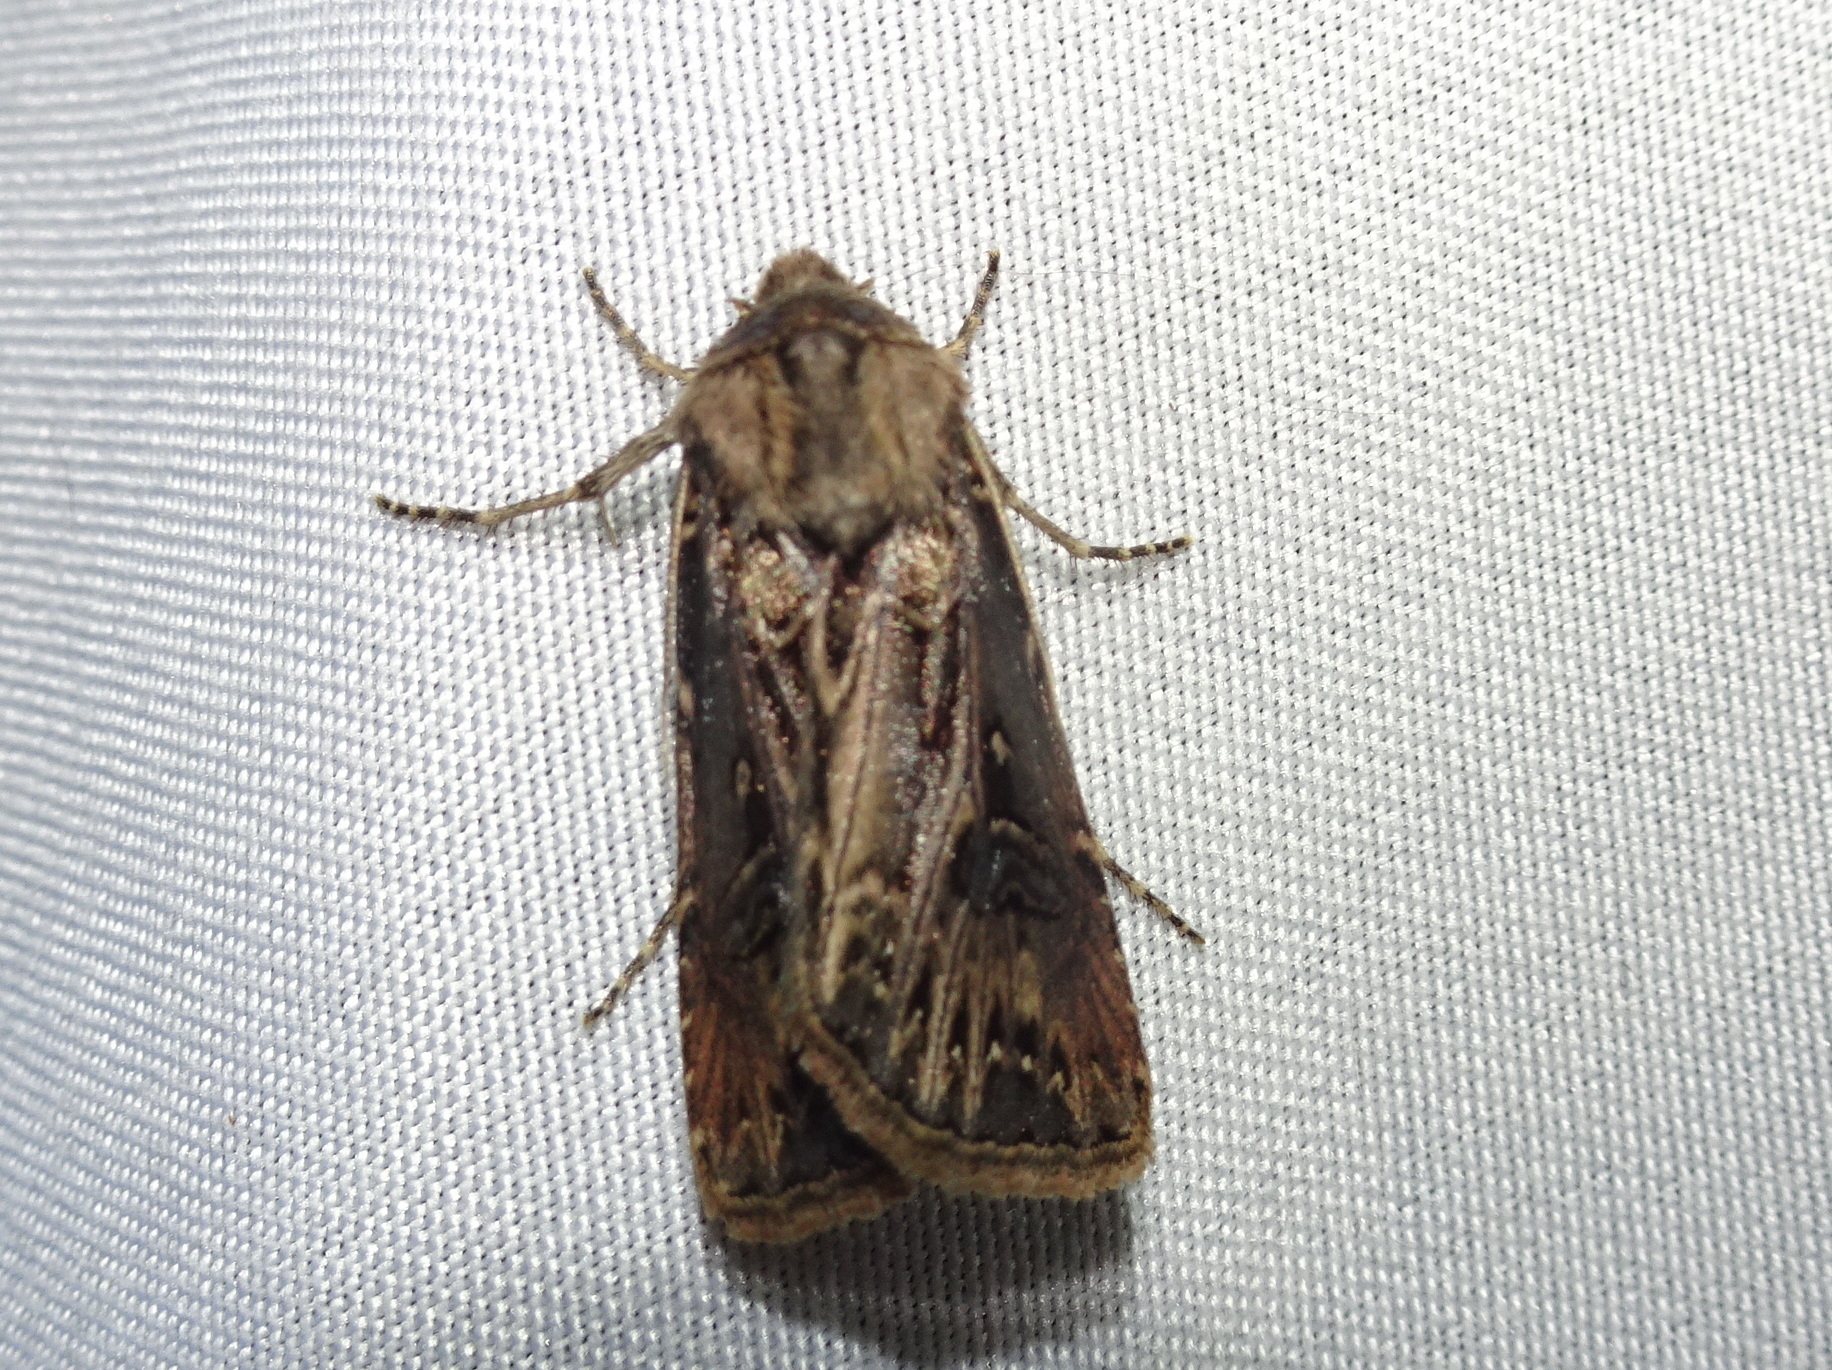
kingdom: Animalia
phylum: Arthropoda
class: Insecta
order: Lepidoptera
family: Noctuidae
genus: Agrotis
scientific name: Agrotis gladiaria
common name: Claybacked cutworm
